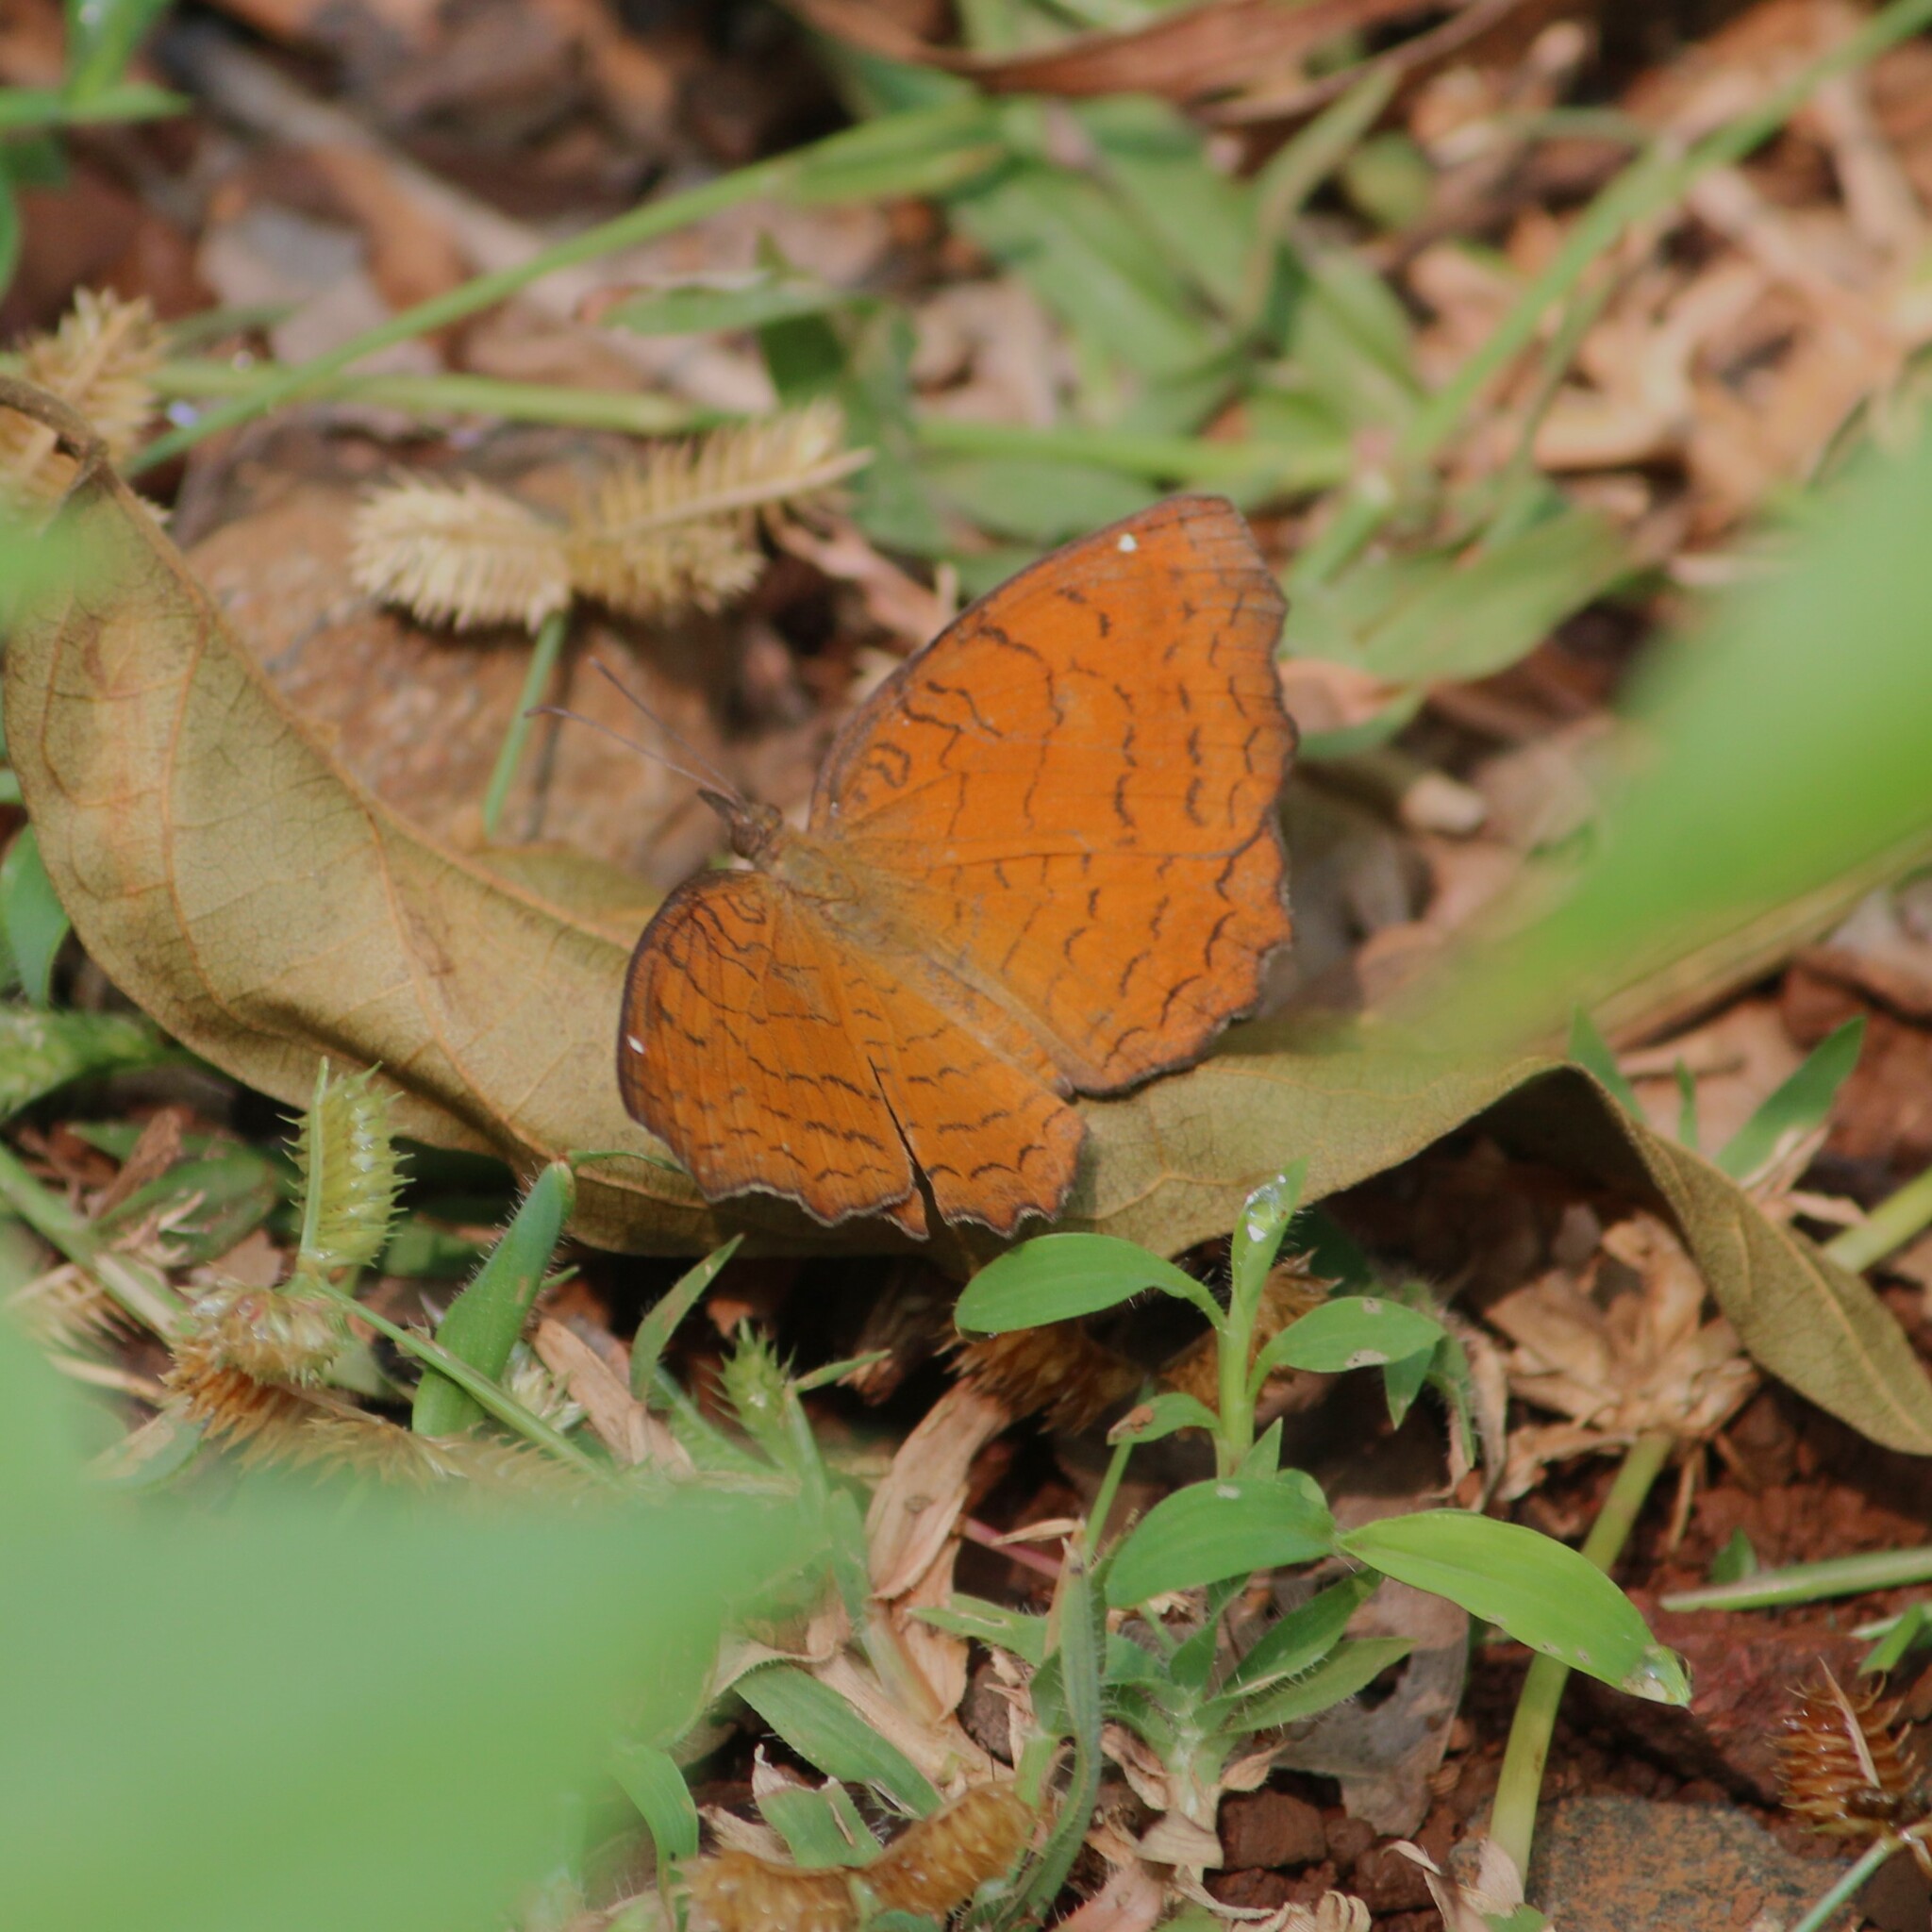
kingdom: Animalia
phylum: Arthropoda
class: Insecta
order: Lepidoptera
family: Nymphalidae
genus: Ariadne
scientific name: Ariadne ariadne
